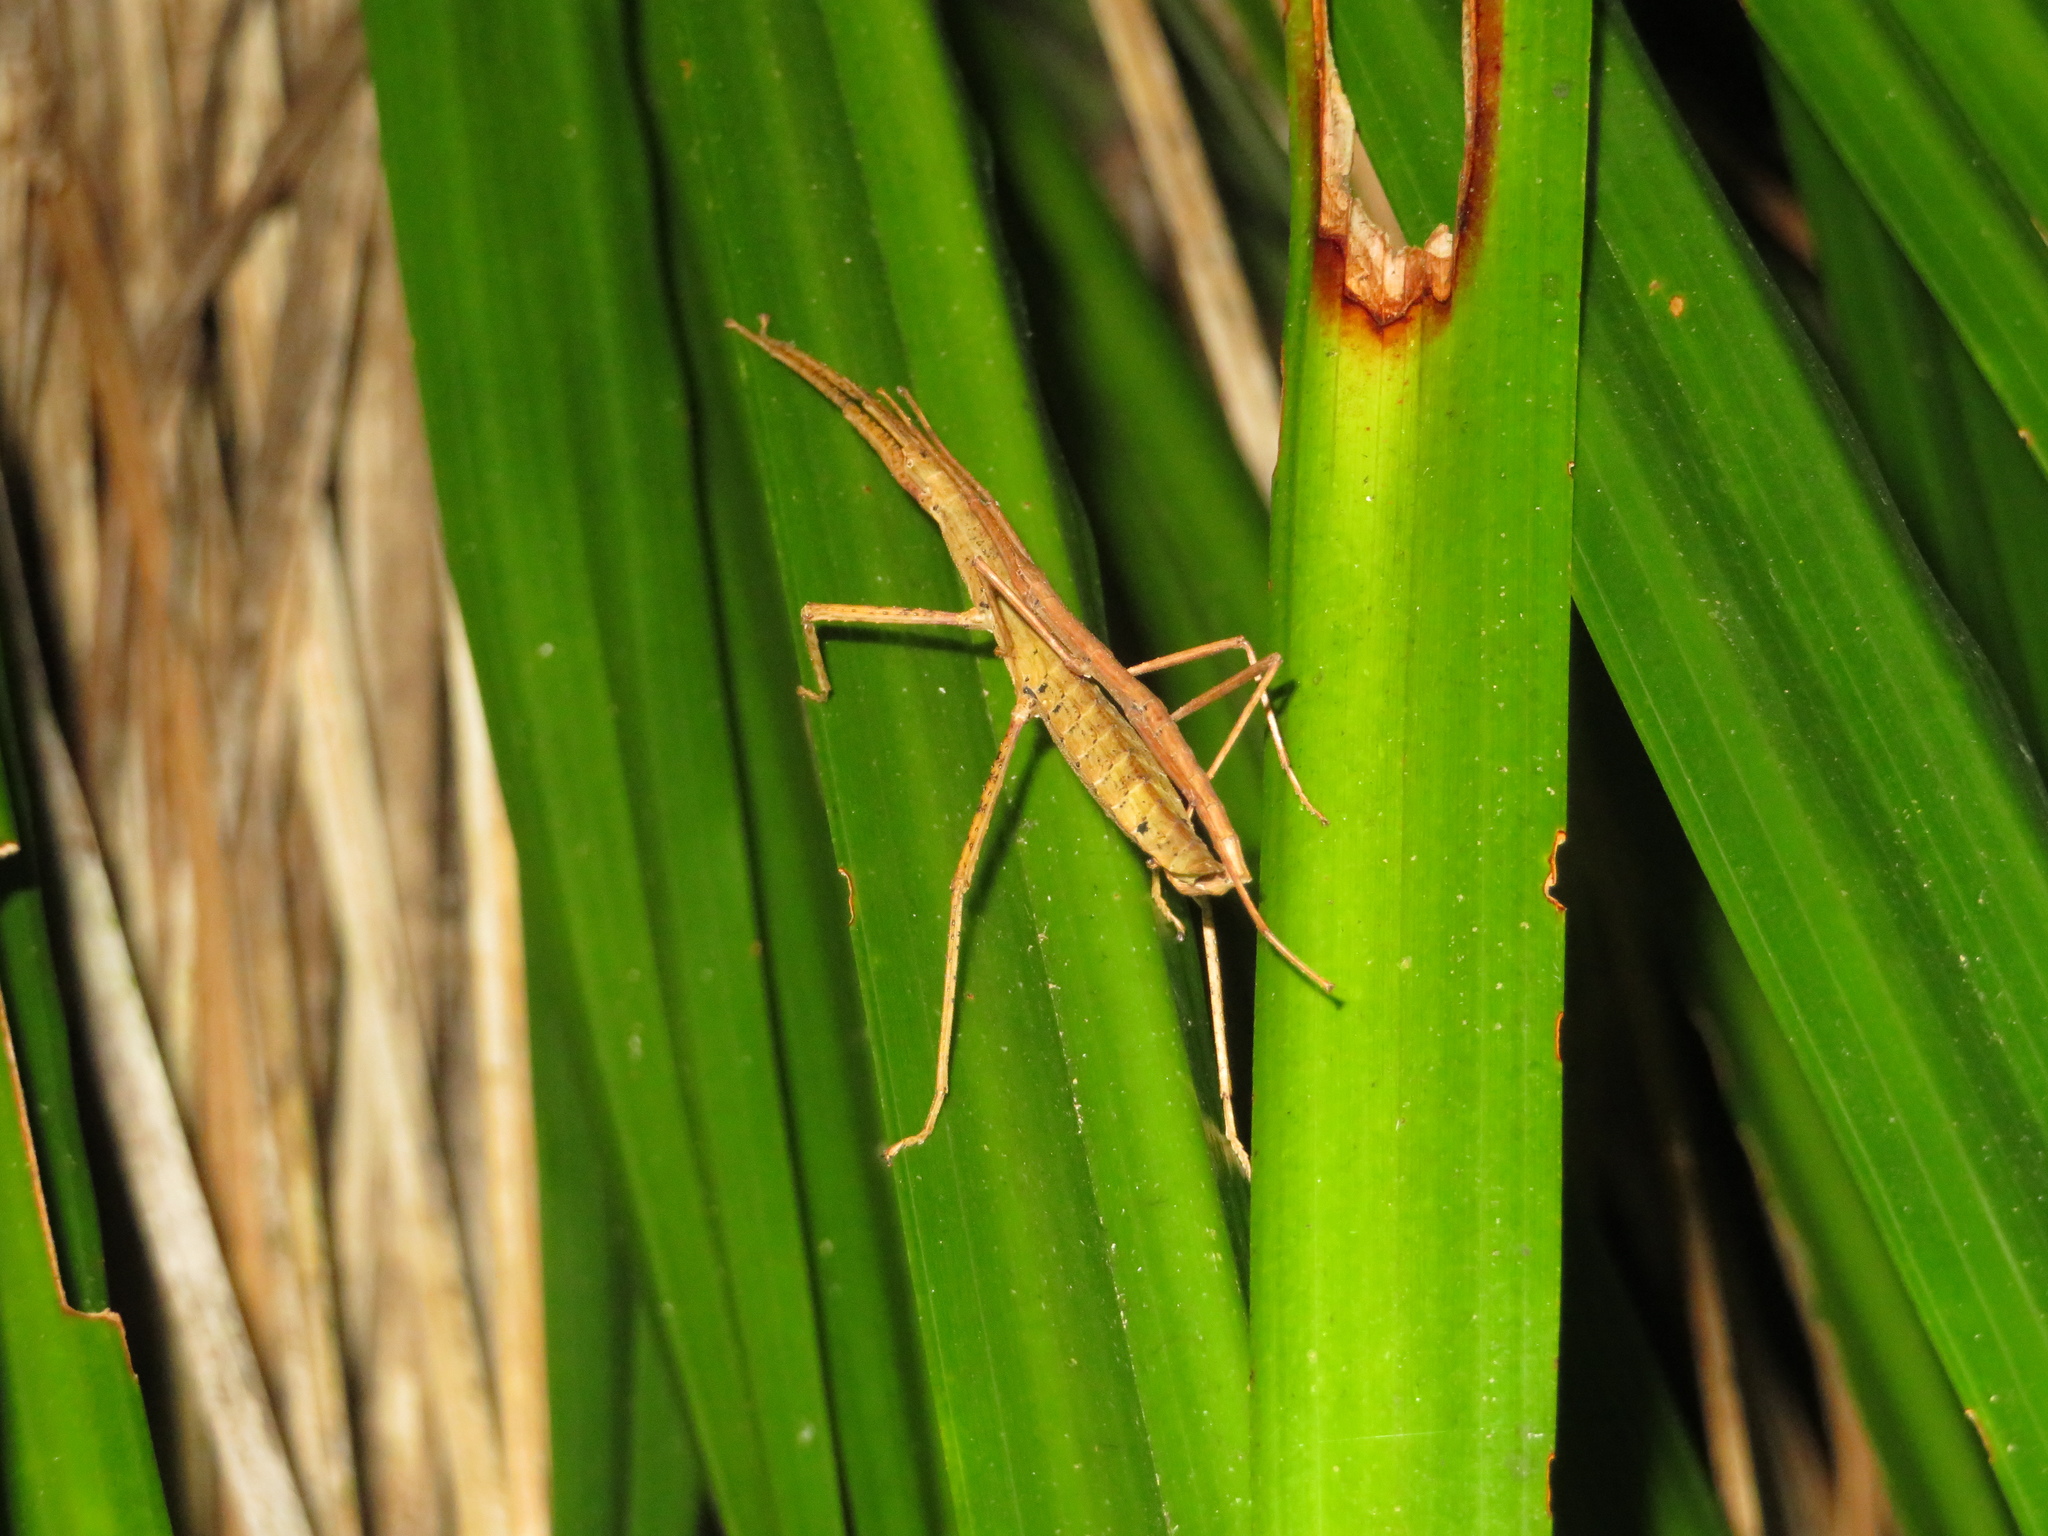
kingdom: Animalia
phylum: Arthropoda
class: Insecta
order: Phasmida
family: Phasmatidae
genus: Tectarchus
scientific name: Tectarchus huttoni
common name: The common ridge-backed stick insect
